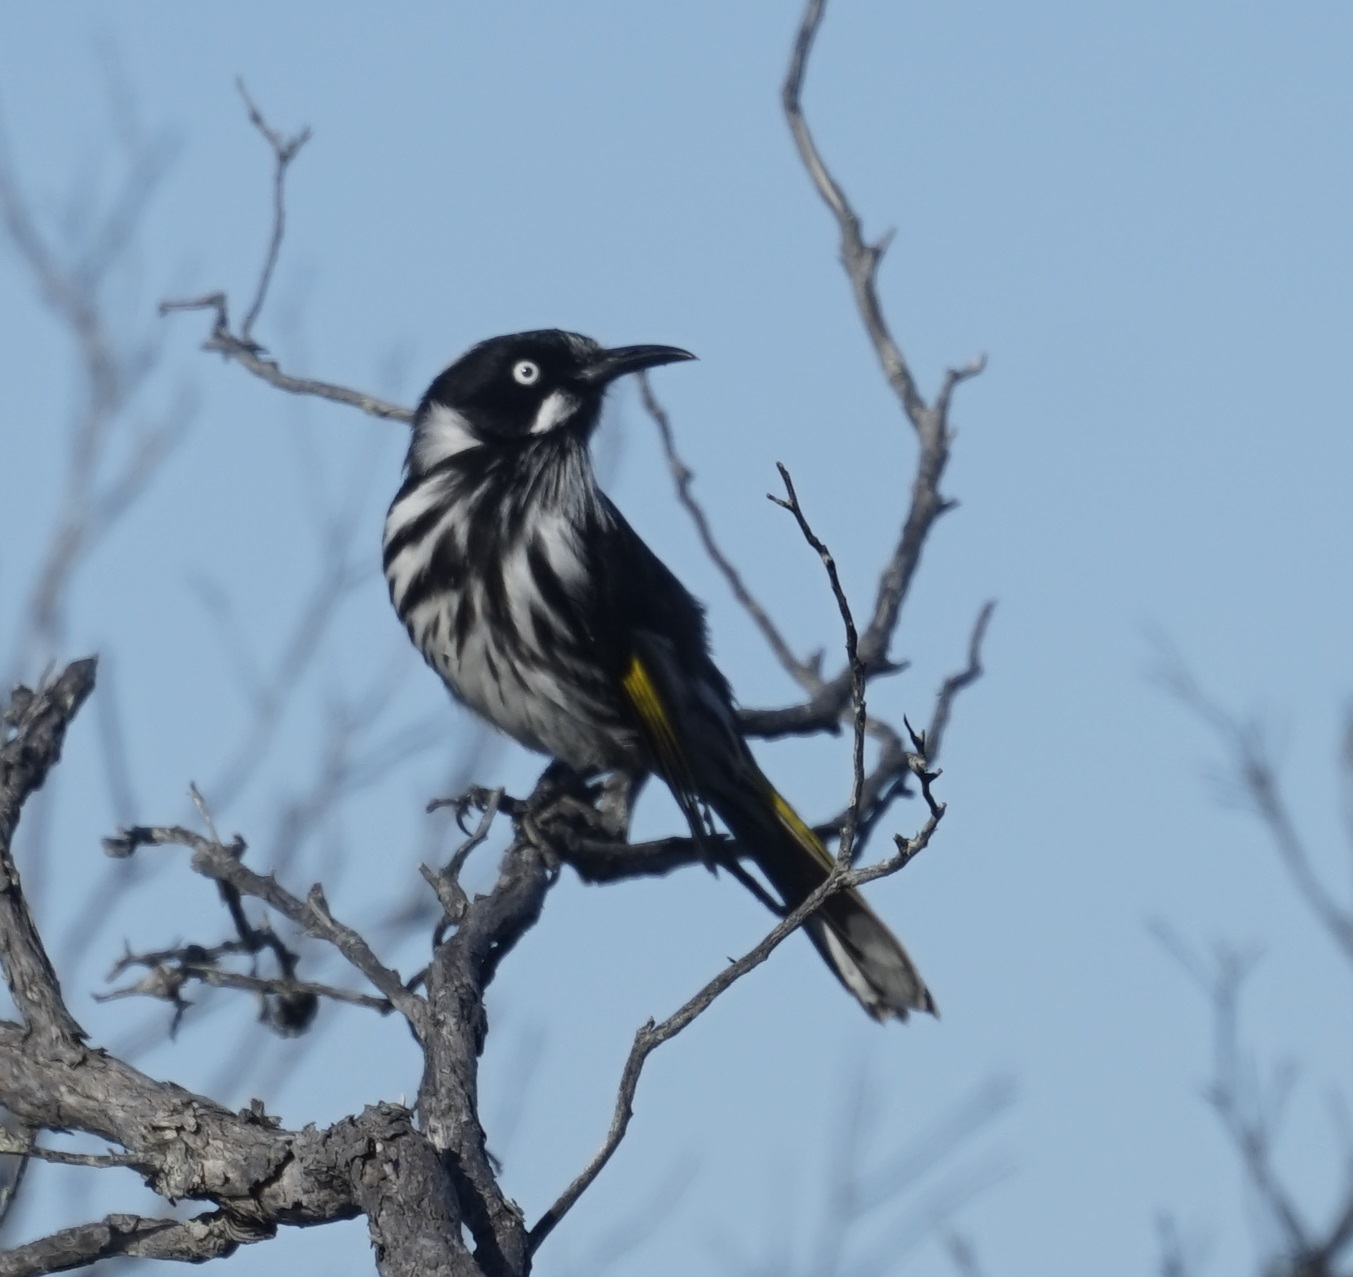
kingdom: Animalia
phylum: Chordata
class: Aves
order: Passeriformes
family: Meliphagidae
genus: Phylidonyris
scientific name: Phylidonyris novaehollandiae
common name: New holland honeyeater
